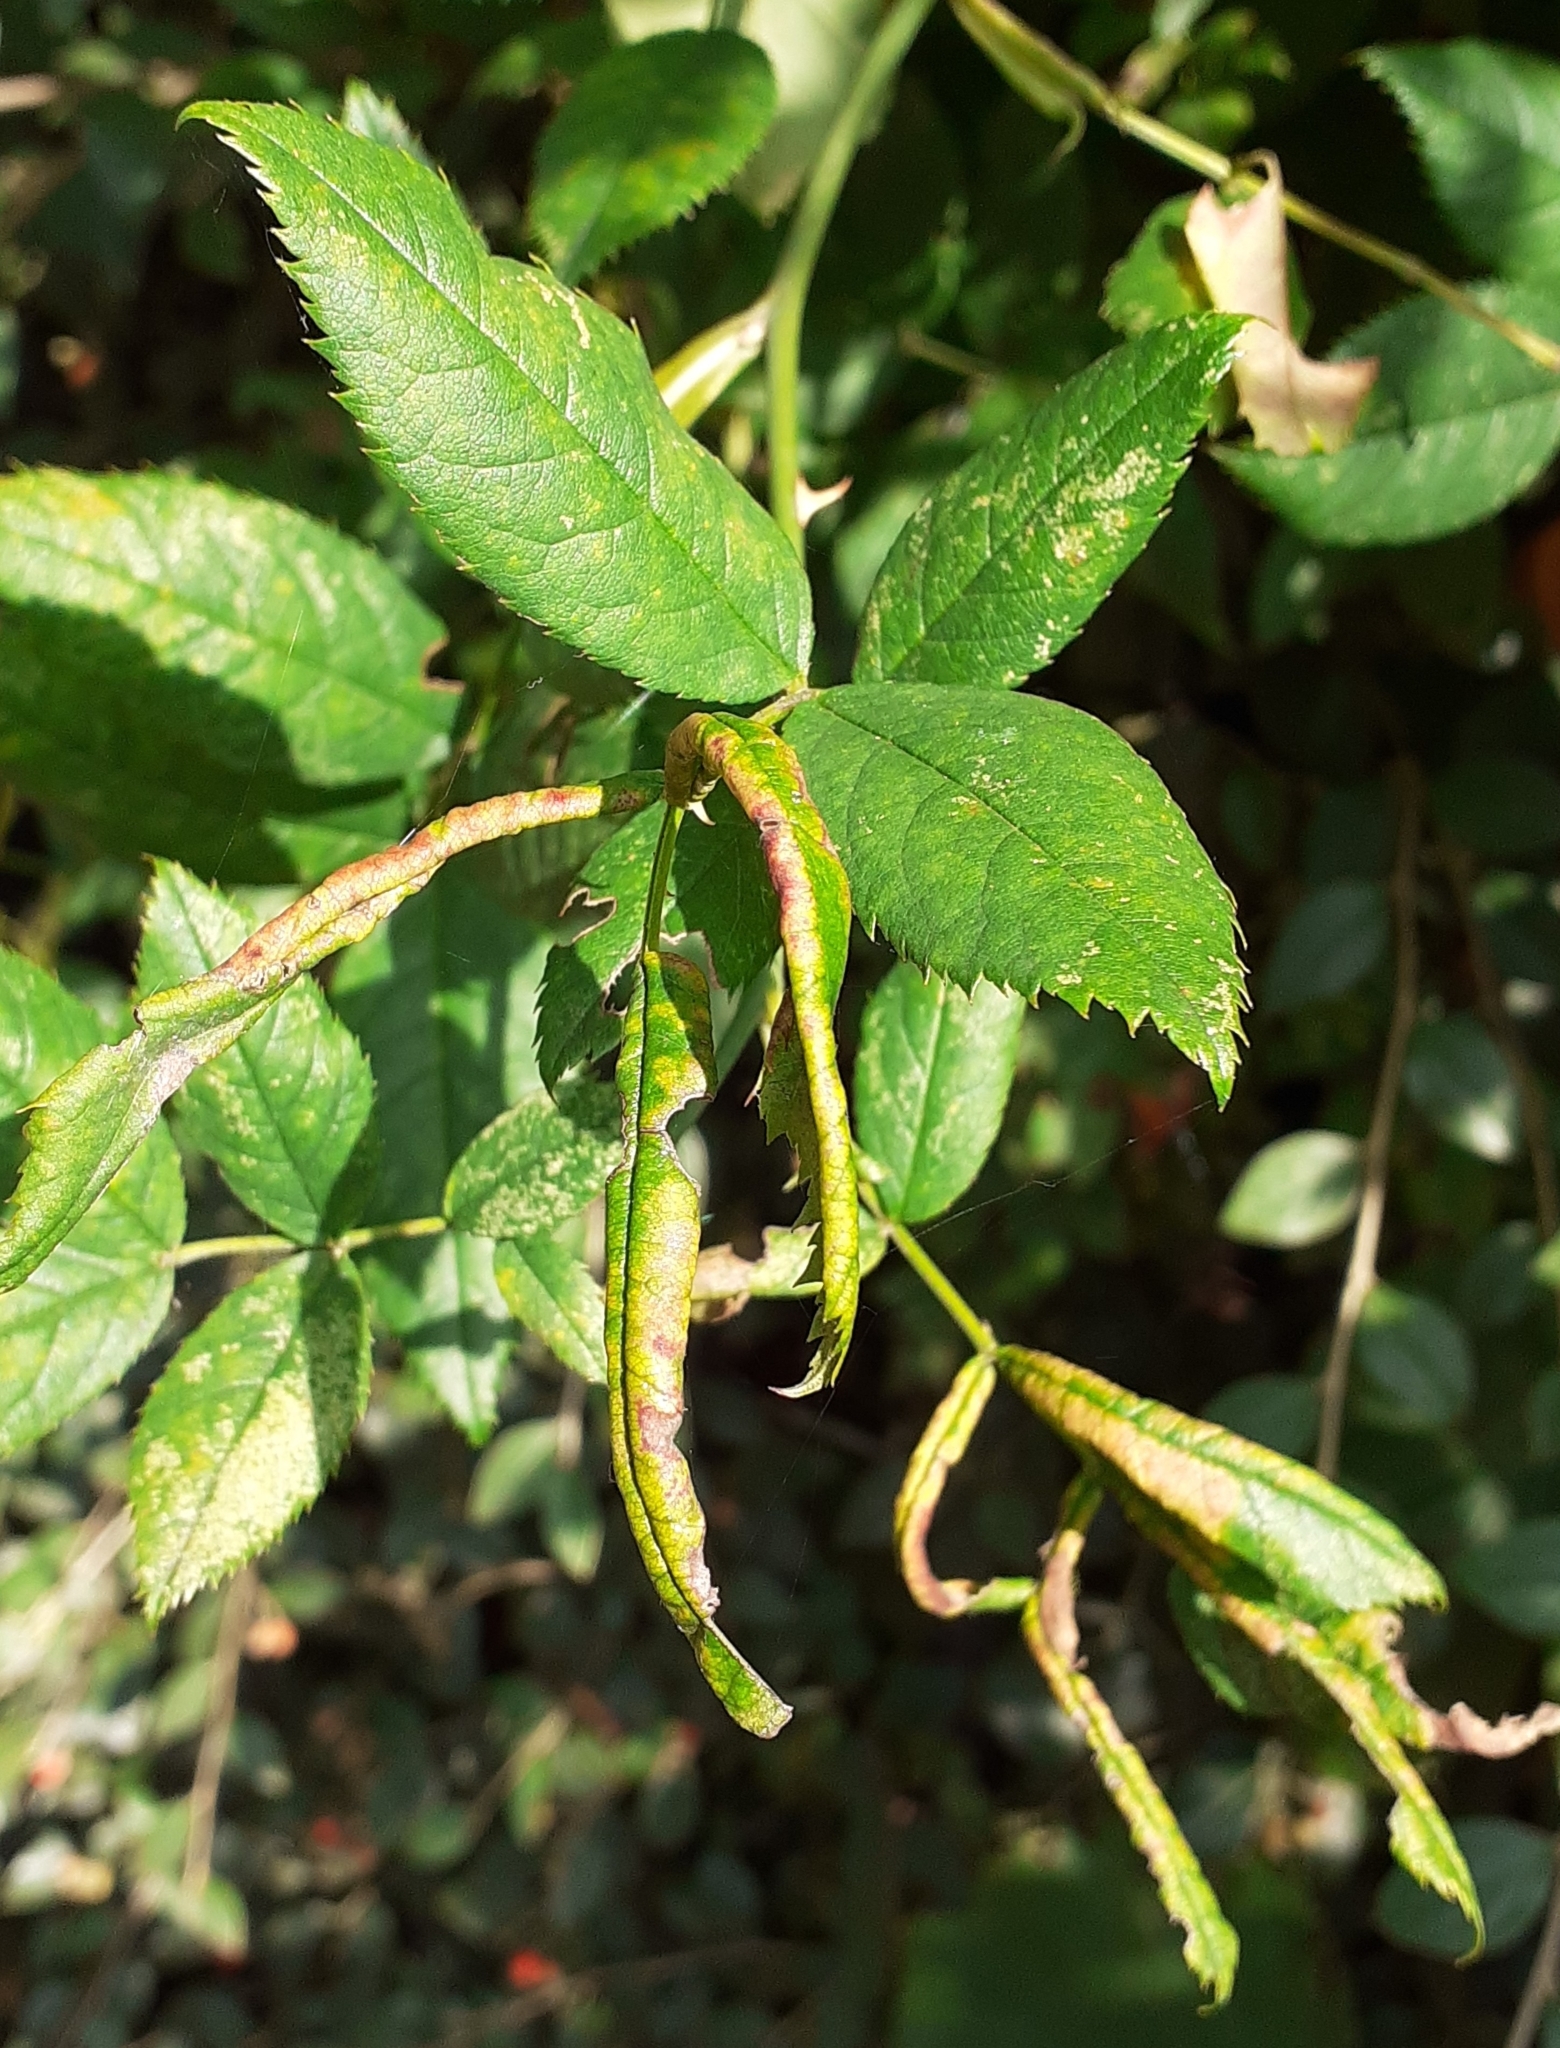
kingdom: Animalia
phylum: Arthropoda
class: Insecta
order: Hymenoptera
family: Tenthredinidae
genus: Blennocampa
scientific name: Blennocampa phyllocolpa
